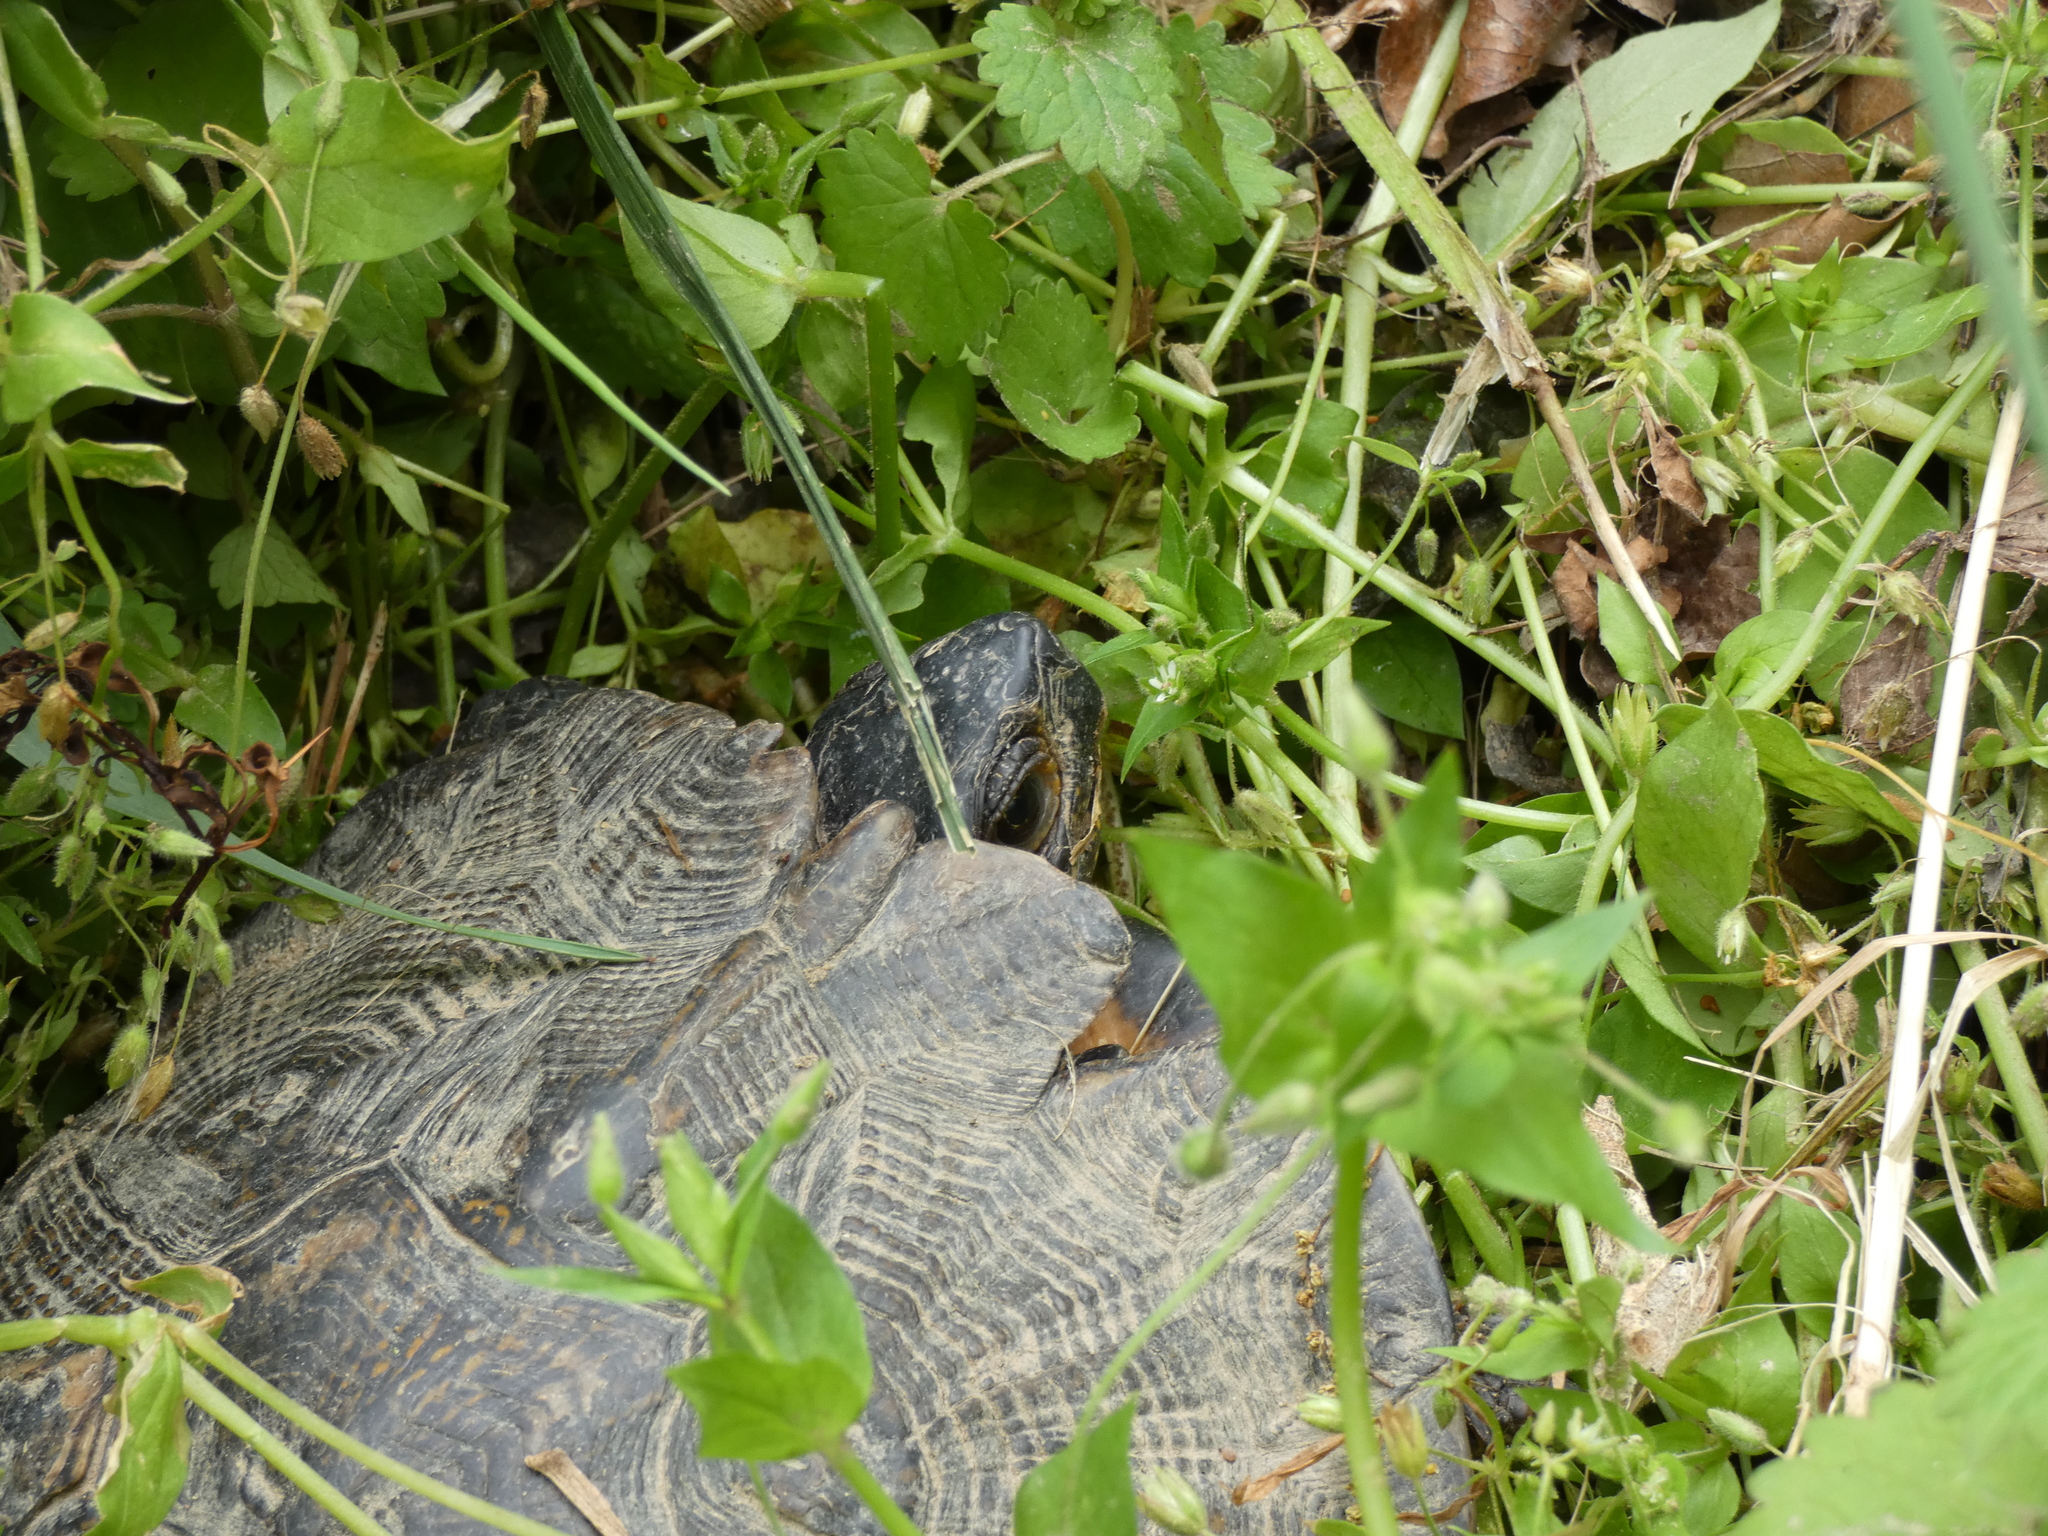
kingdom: Animalia
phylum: Chordata
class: Testudines
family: Emydidae
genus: Glyptemys
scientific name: Glyptemys insculpta
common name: Wood turtle
